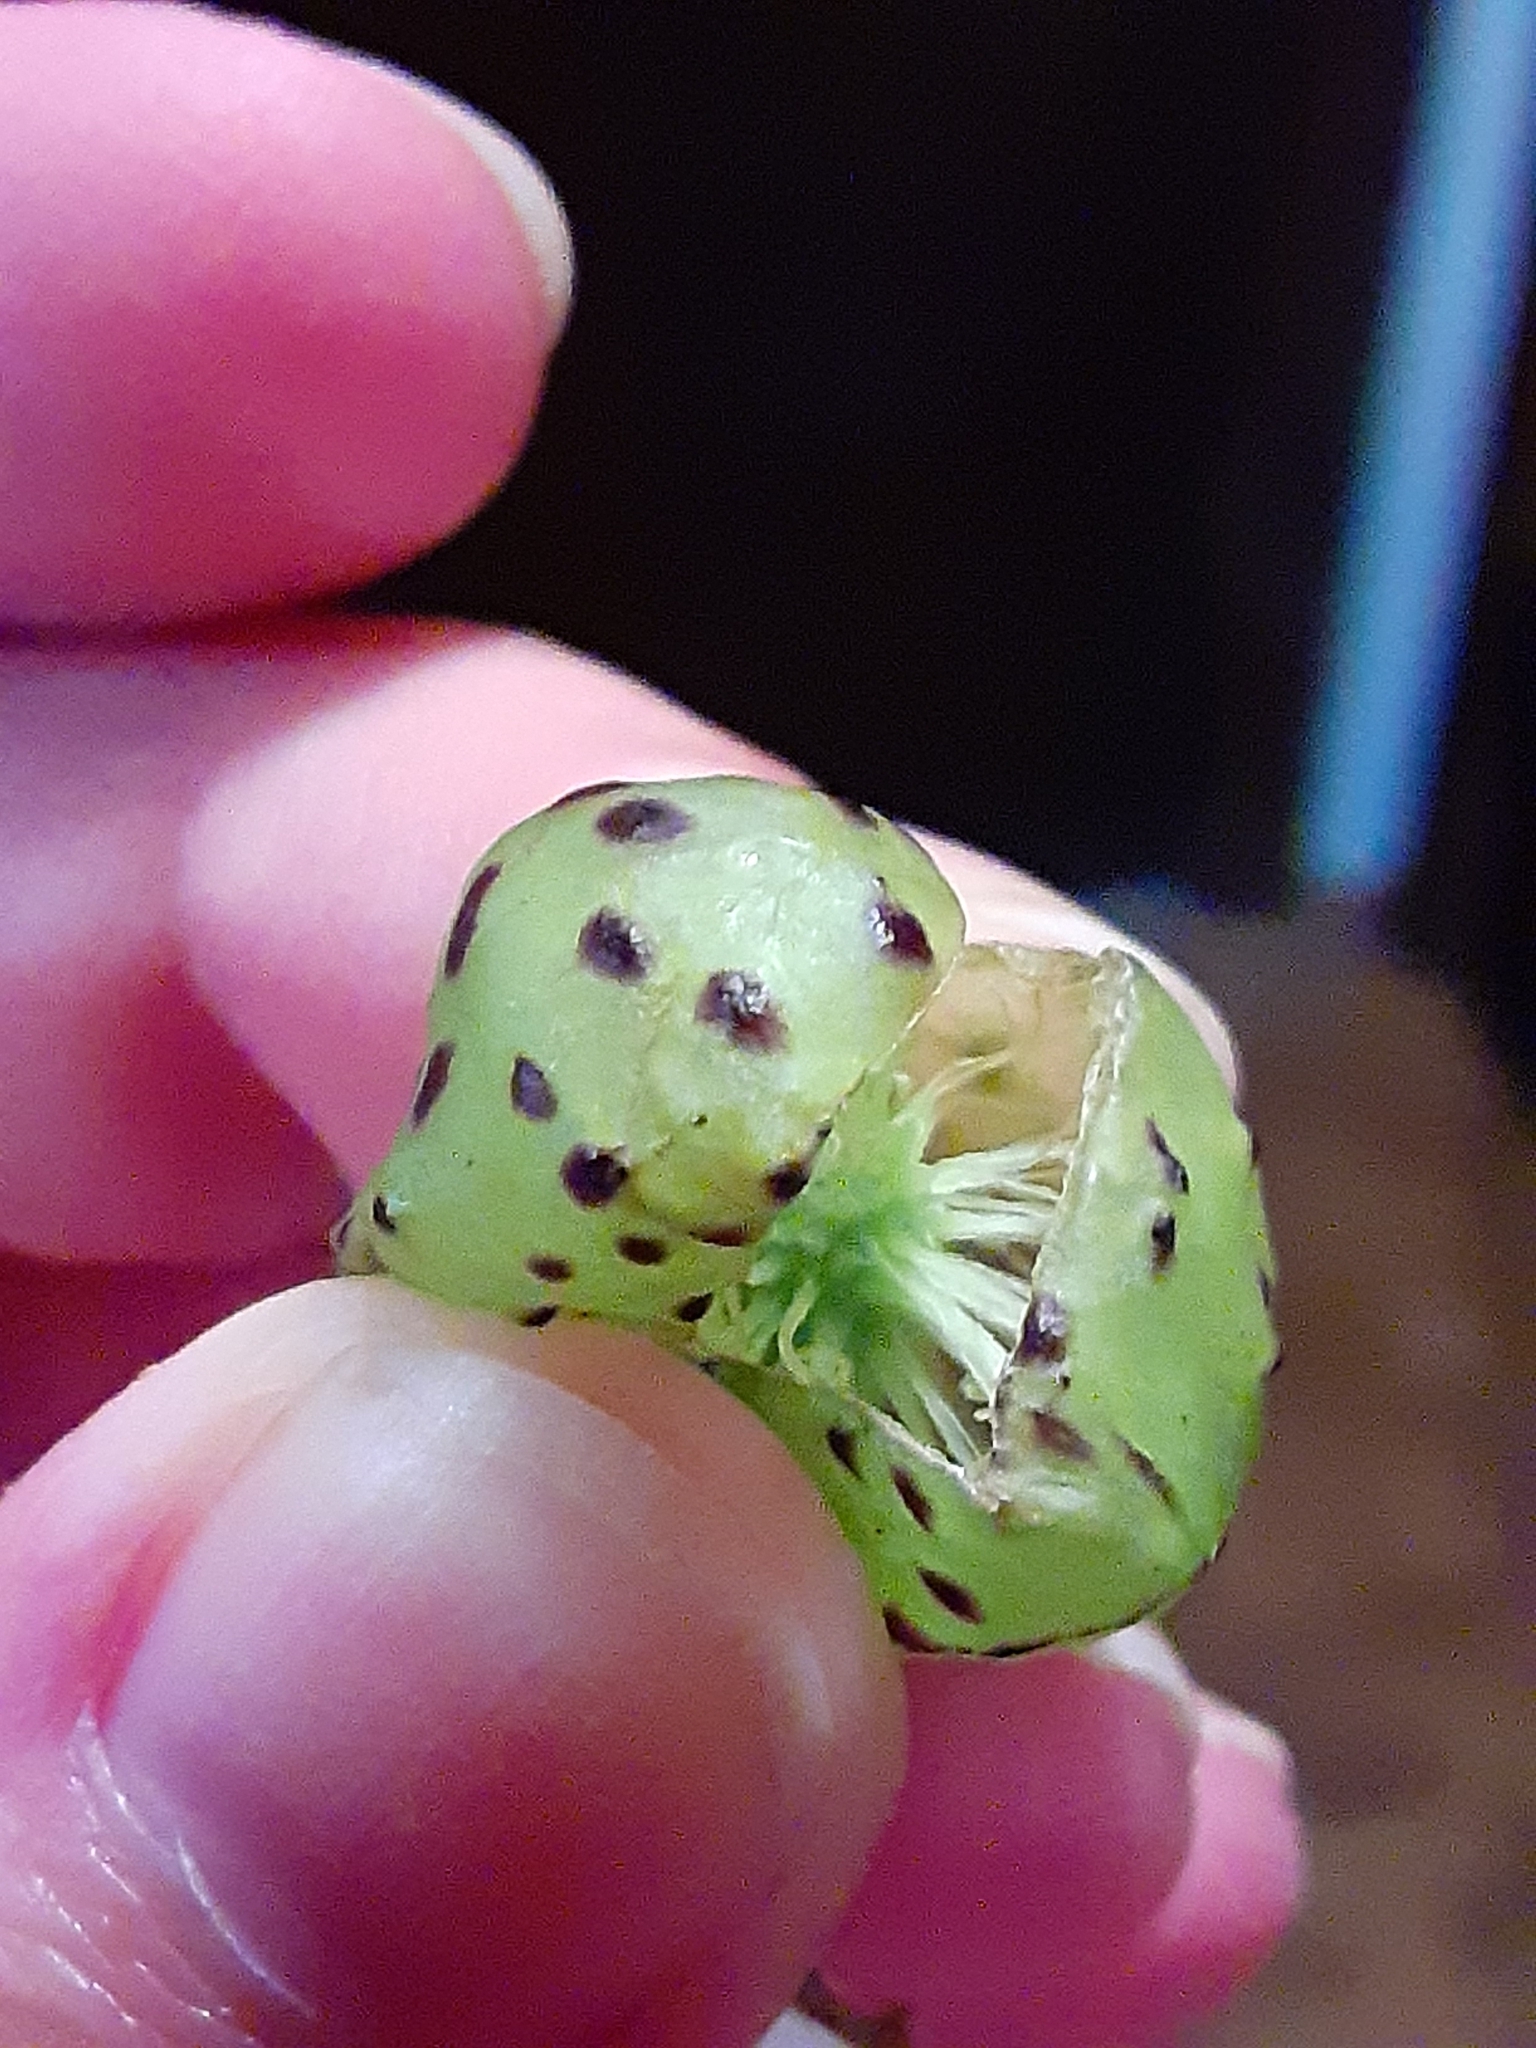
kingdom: Animalia
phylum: Arthropoda
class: Insecta
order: Hymenoptera
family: Cynipidae
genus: Amphibolips
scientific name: Amphibolips
